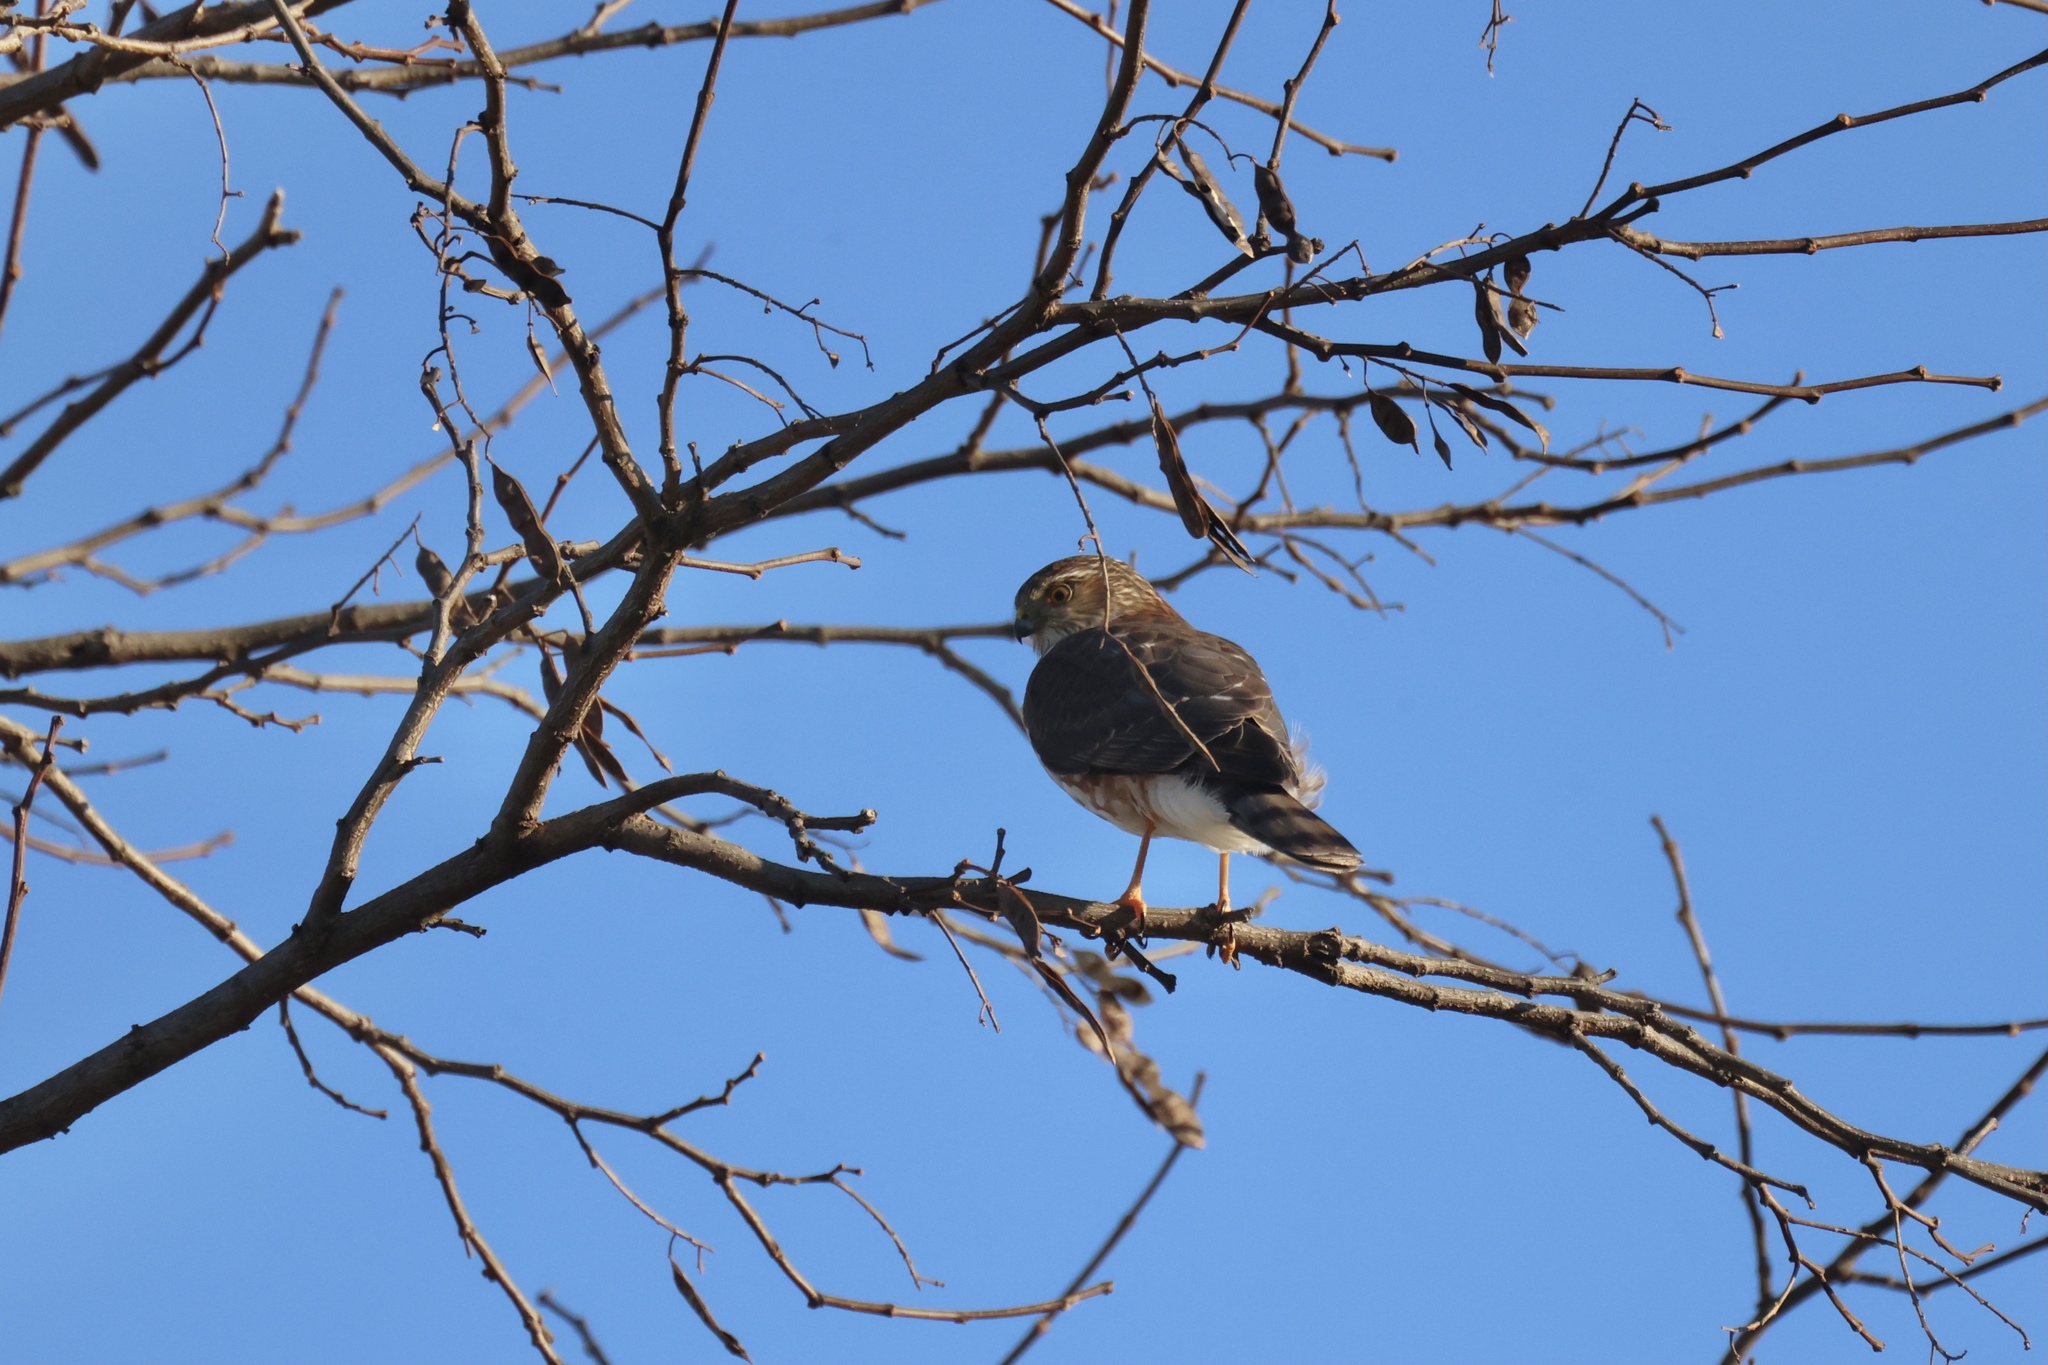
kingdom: Animalia
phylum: Chordata
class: Aves
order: Accipitriformes
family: Accipitridae
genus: Accipiter
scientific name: Accipiter striatus
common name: Sharp-shinned hawk
